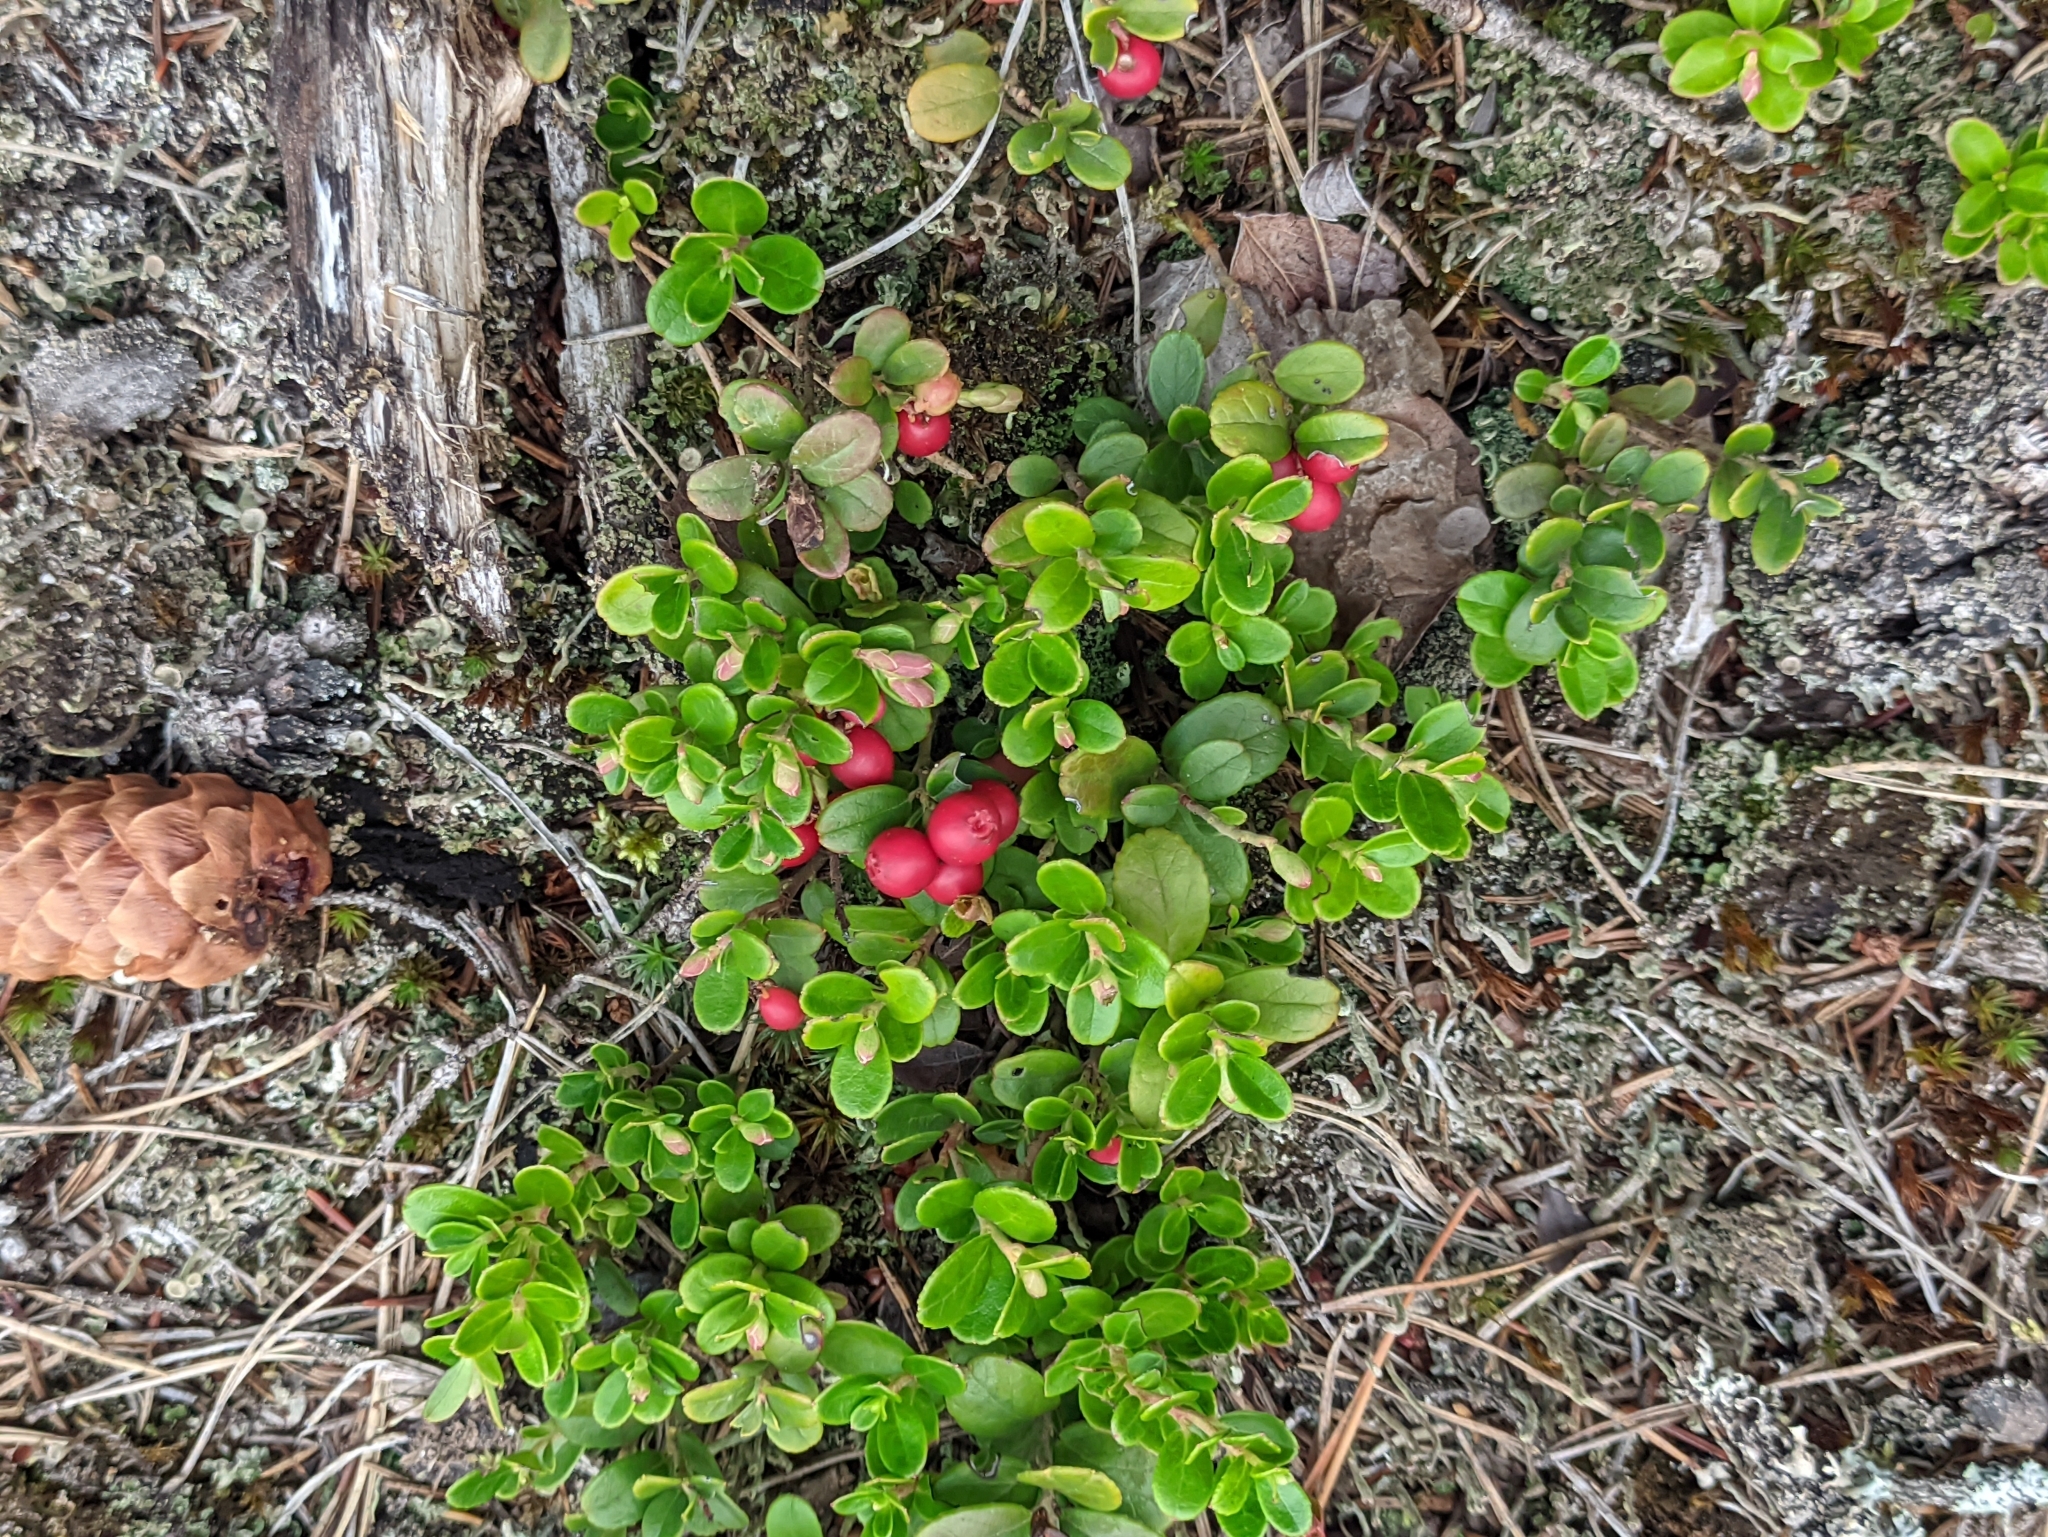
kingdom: Plantae
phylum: Tracheophyta
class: Magnoliopsida
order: Ericales
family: Ericaceae
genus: Vaccinium
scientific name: Vaccinium vitis-idaea
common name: Cowberry
